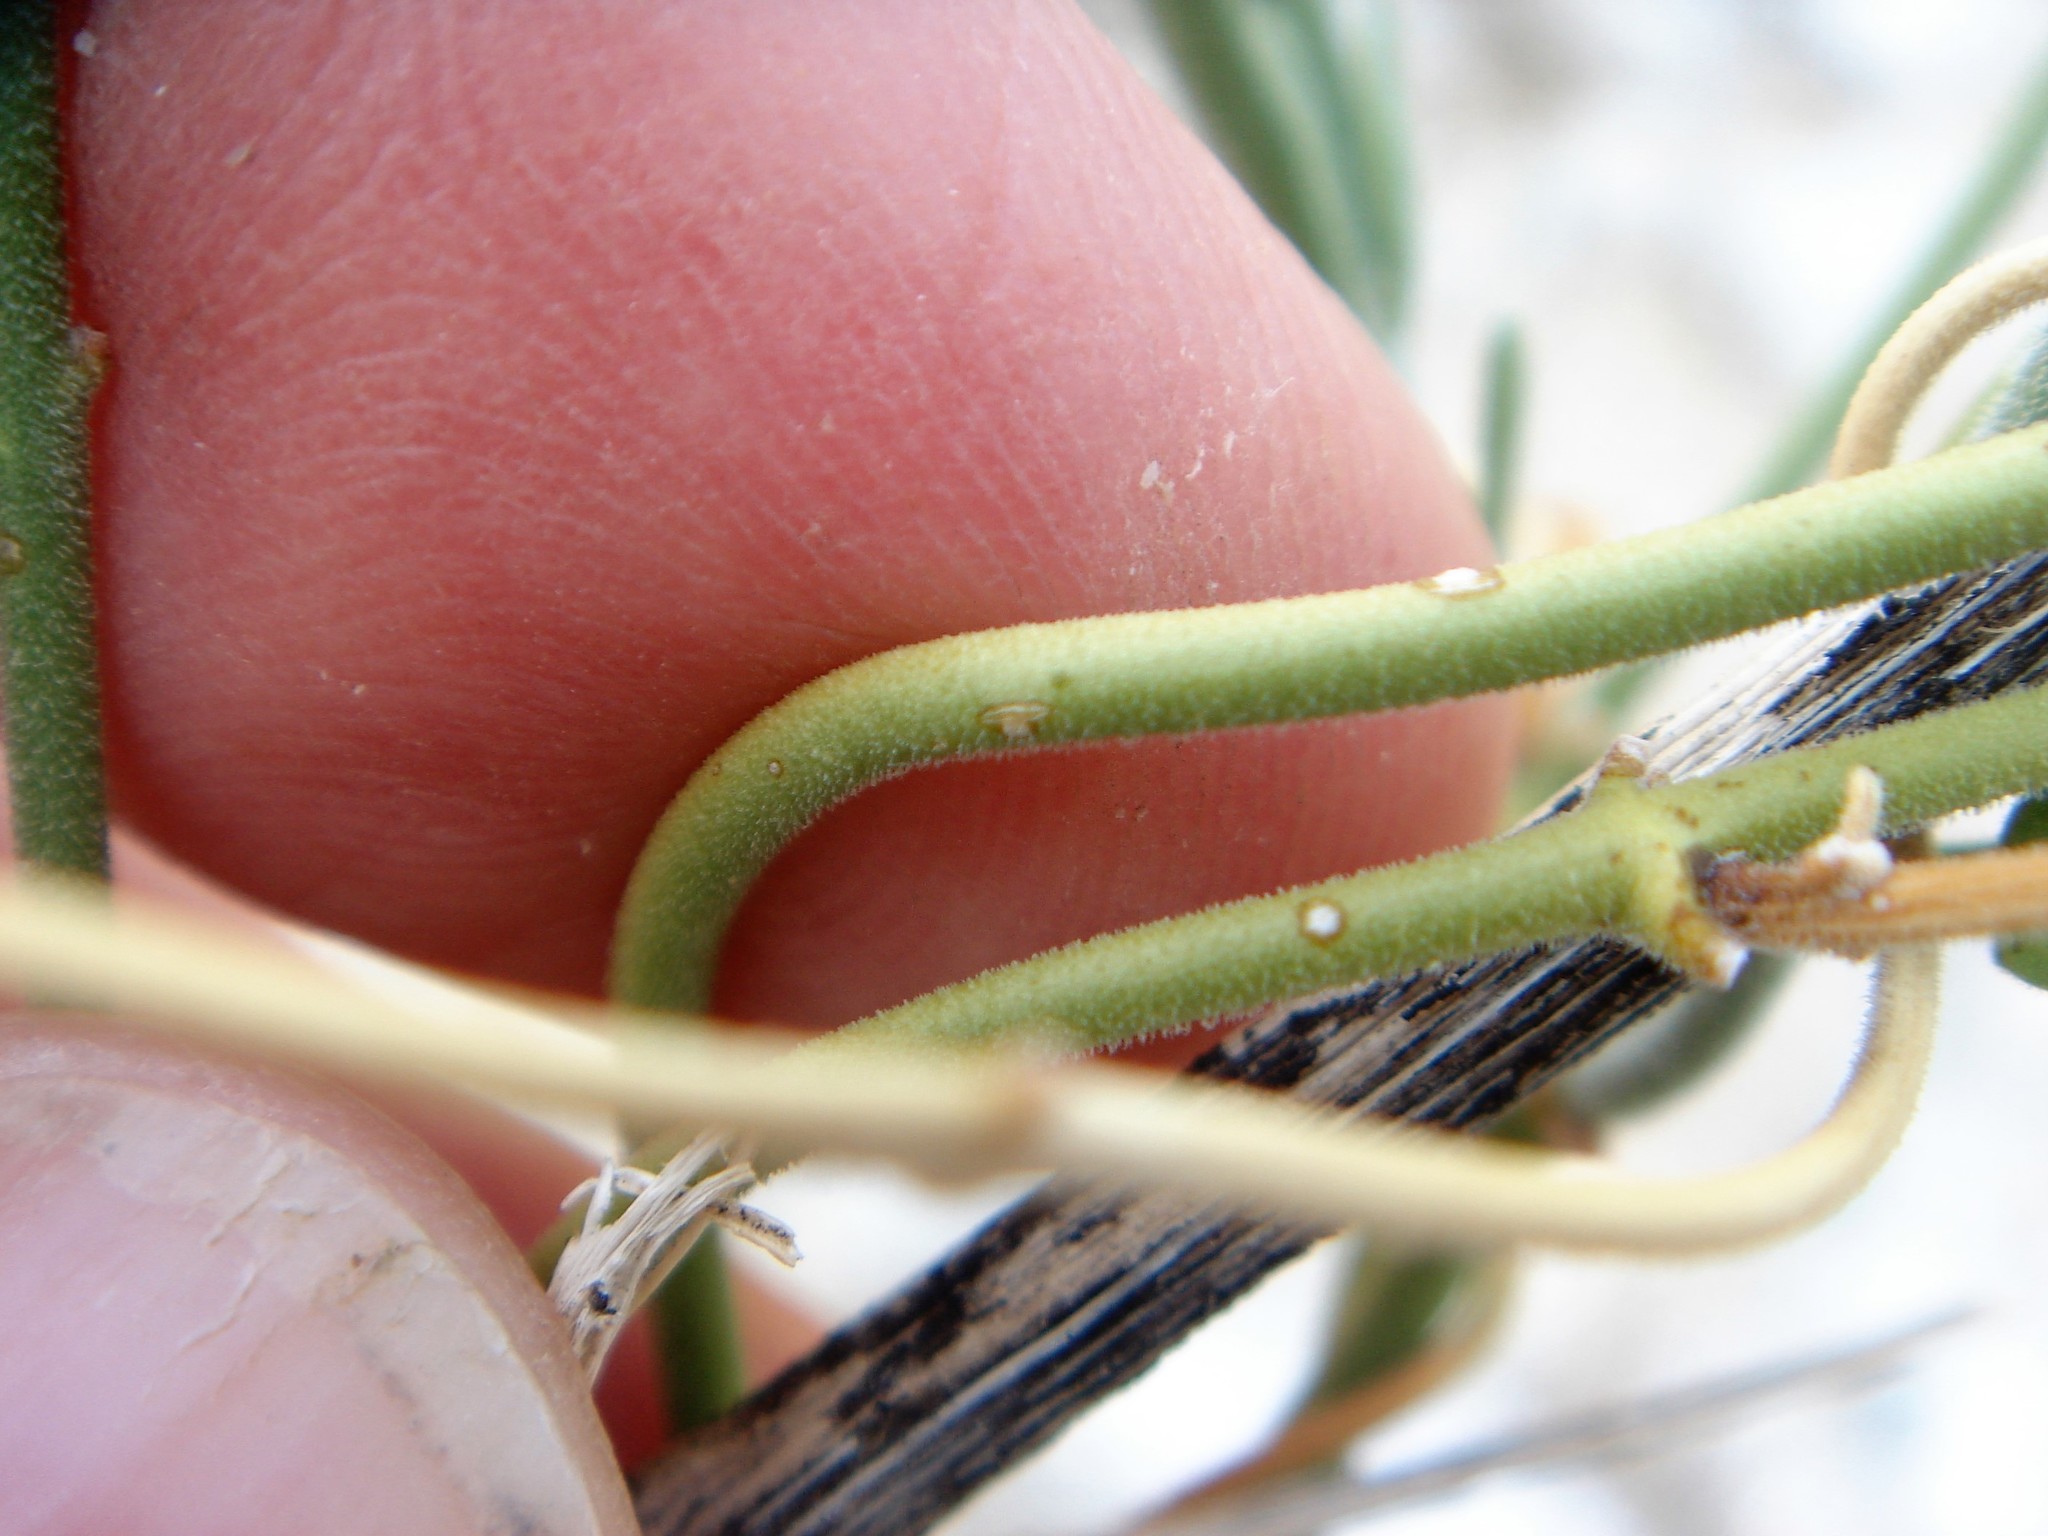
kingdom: Plantae
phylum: Tracheophyta
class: Magnoliopsida
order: Gentianales
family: Apocynaceae
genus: Funastrum
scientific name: Funastrum hirtellum
